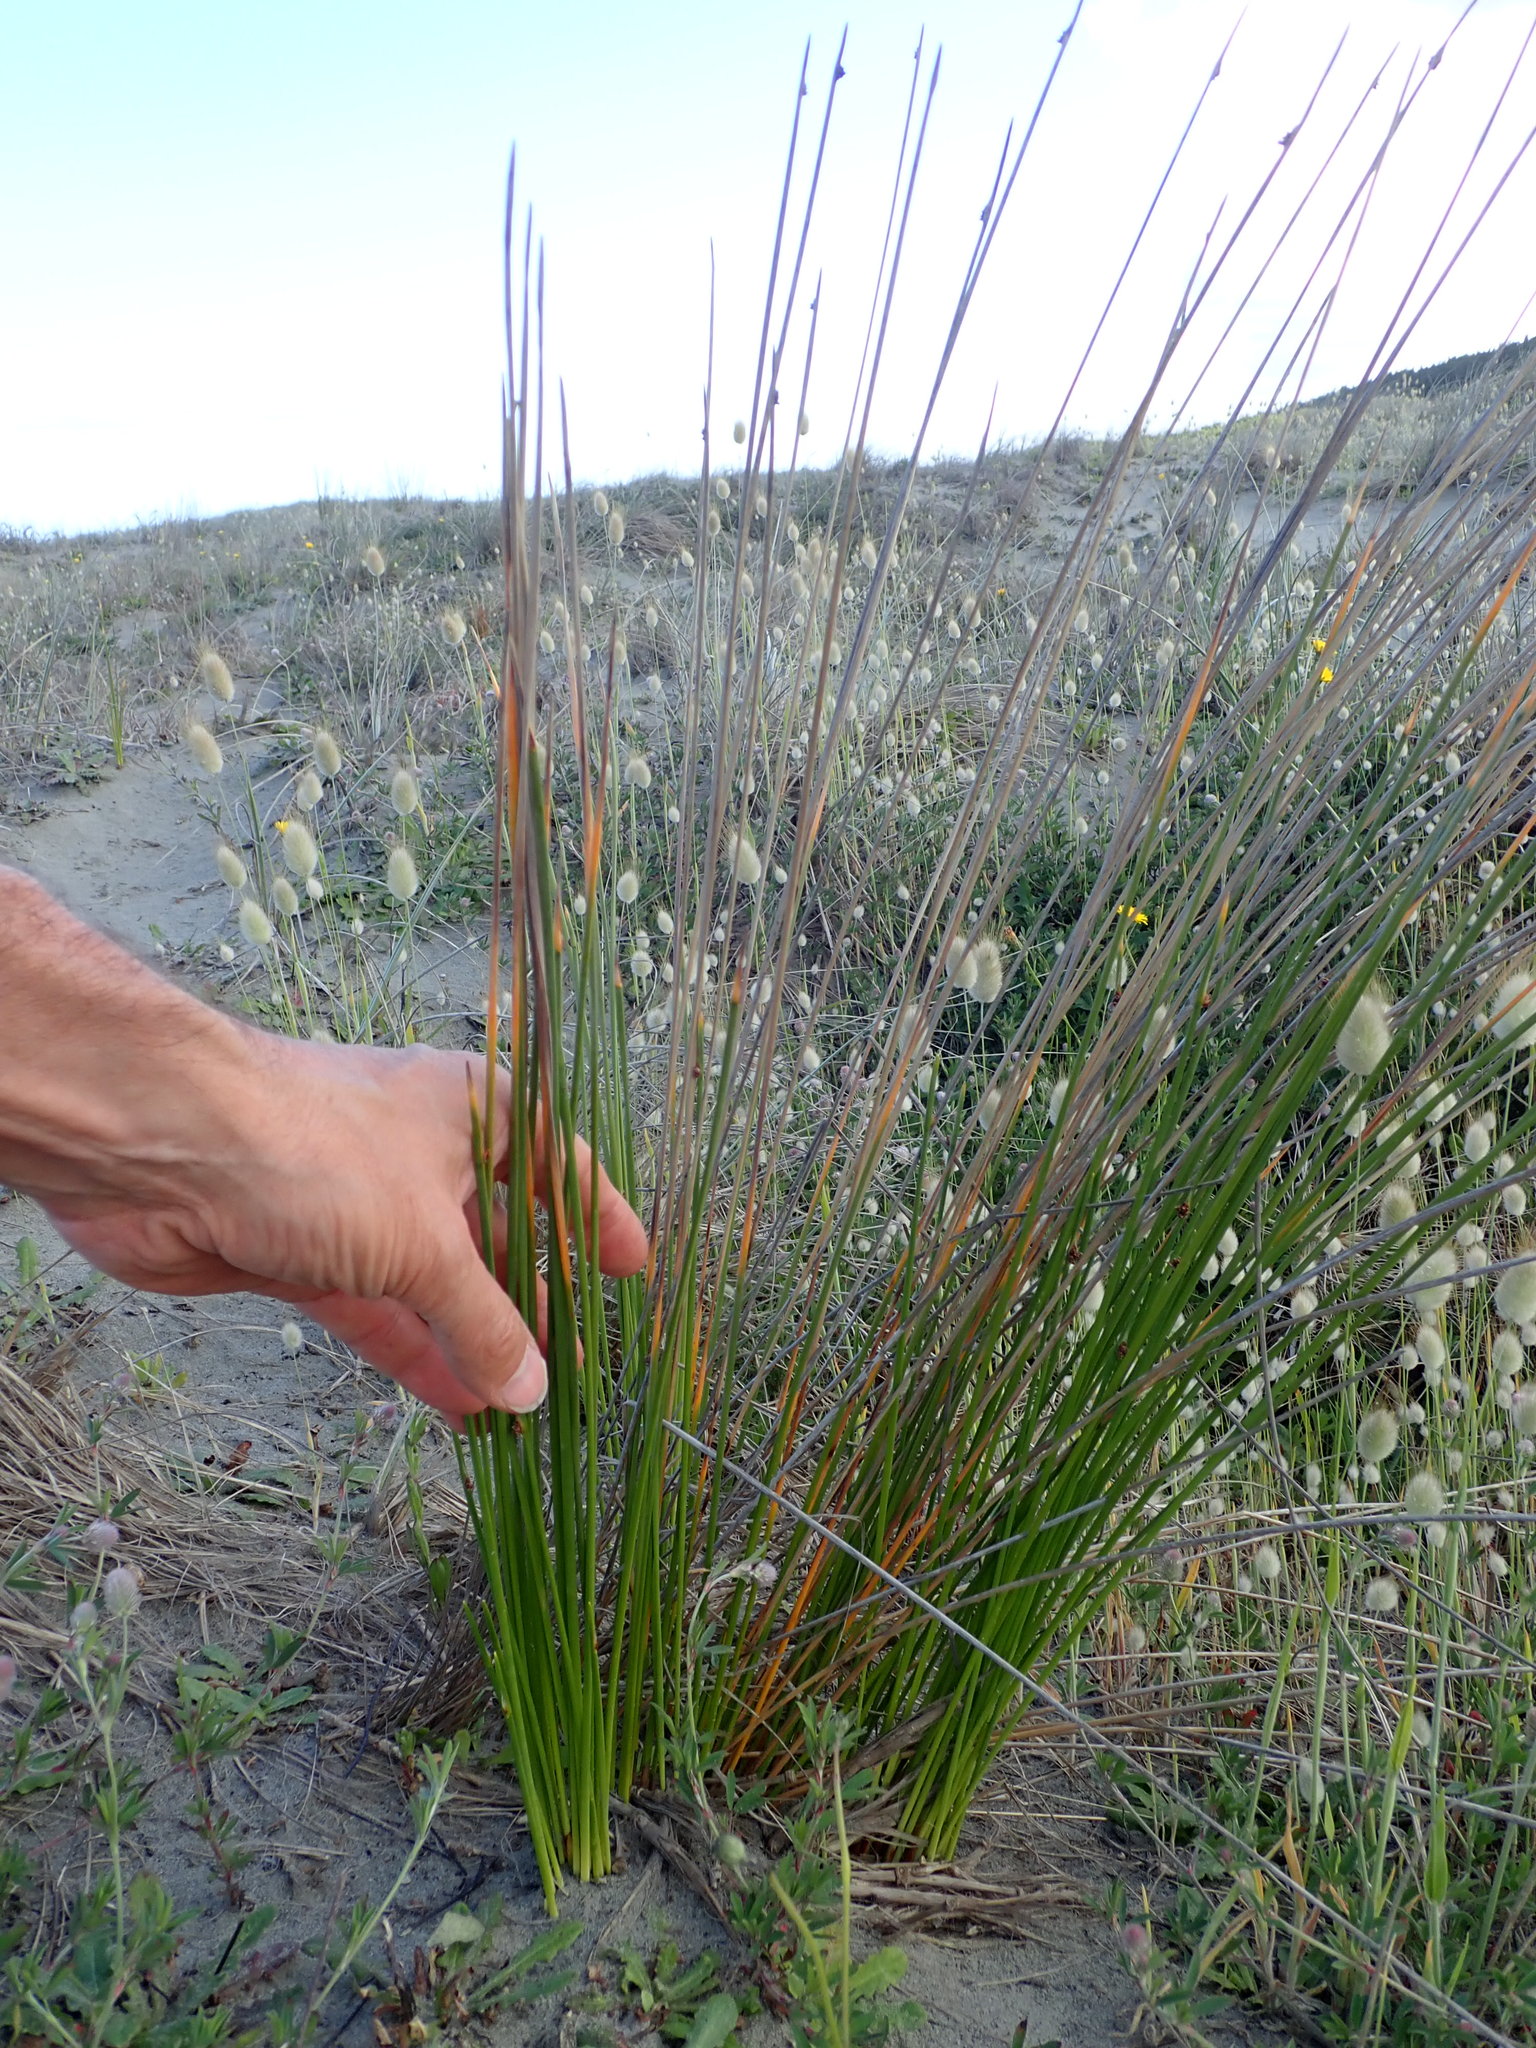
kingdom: Plantae
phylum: Tracheophyta
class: Liliopsida
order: Poales
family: Cyperaceae
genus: Ficinia
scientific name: Ficinia nodosa
